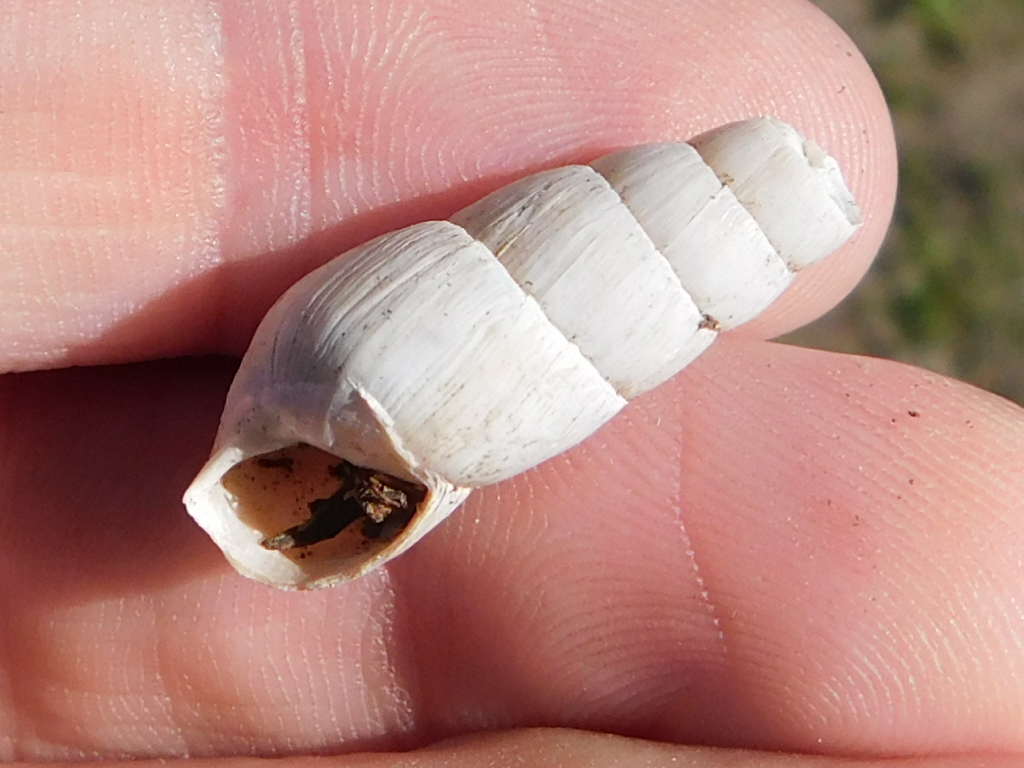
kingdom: Animalia
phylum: Mollusca
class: Gastropoda
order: Stylommatophora
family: Achatinidae
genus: Rumina
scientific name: Rumina decollata
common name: Decollate snail
